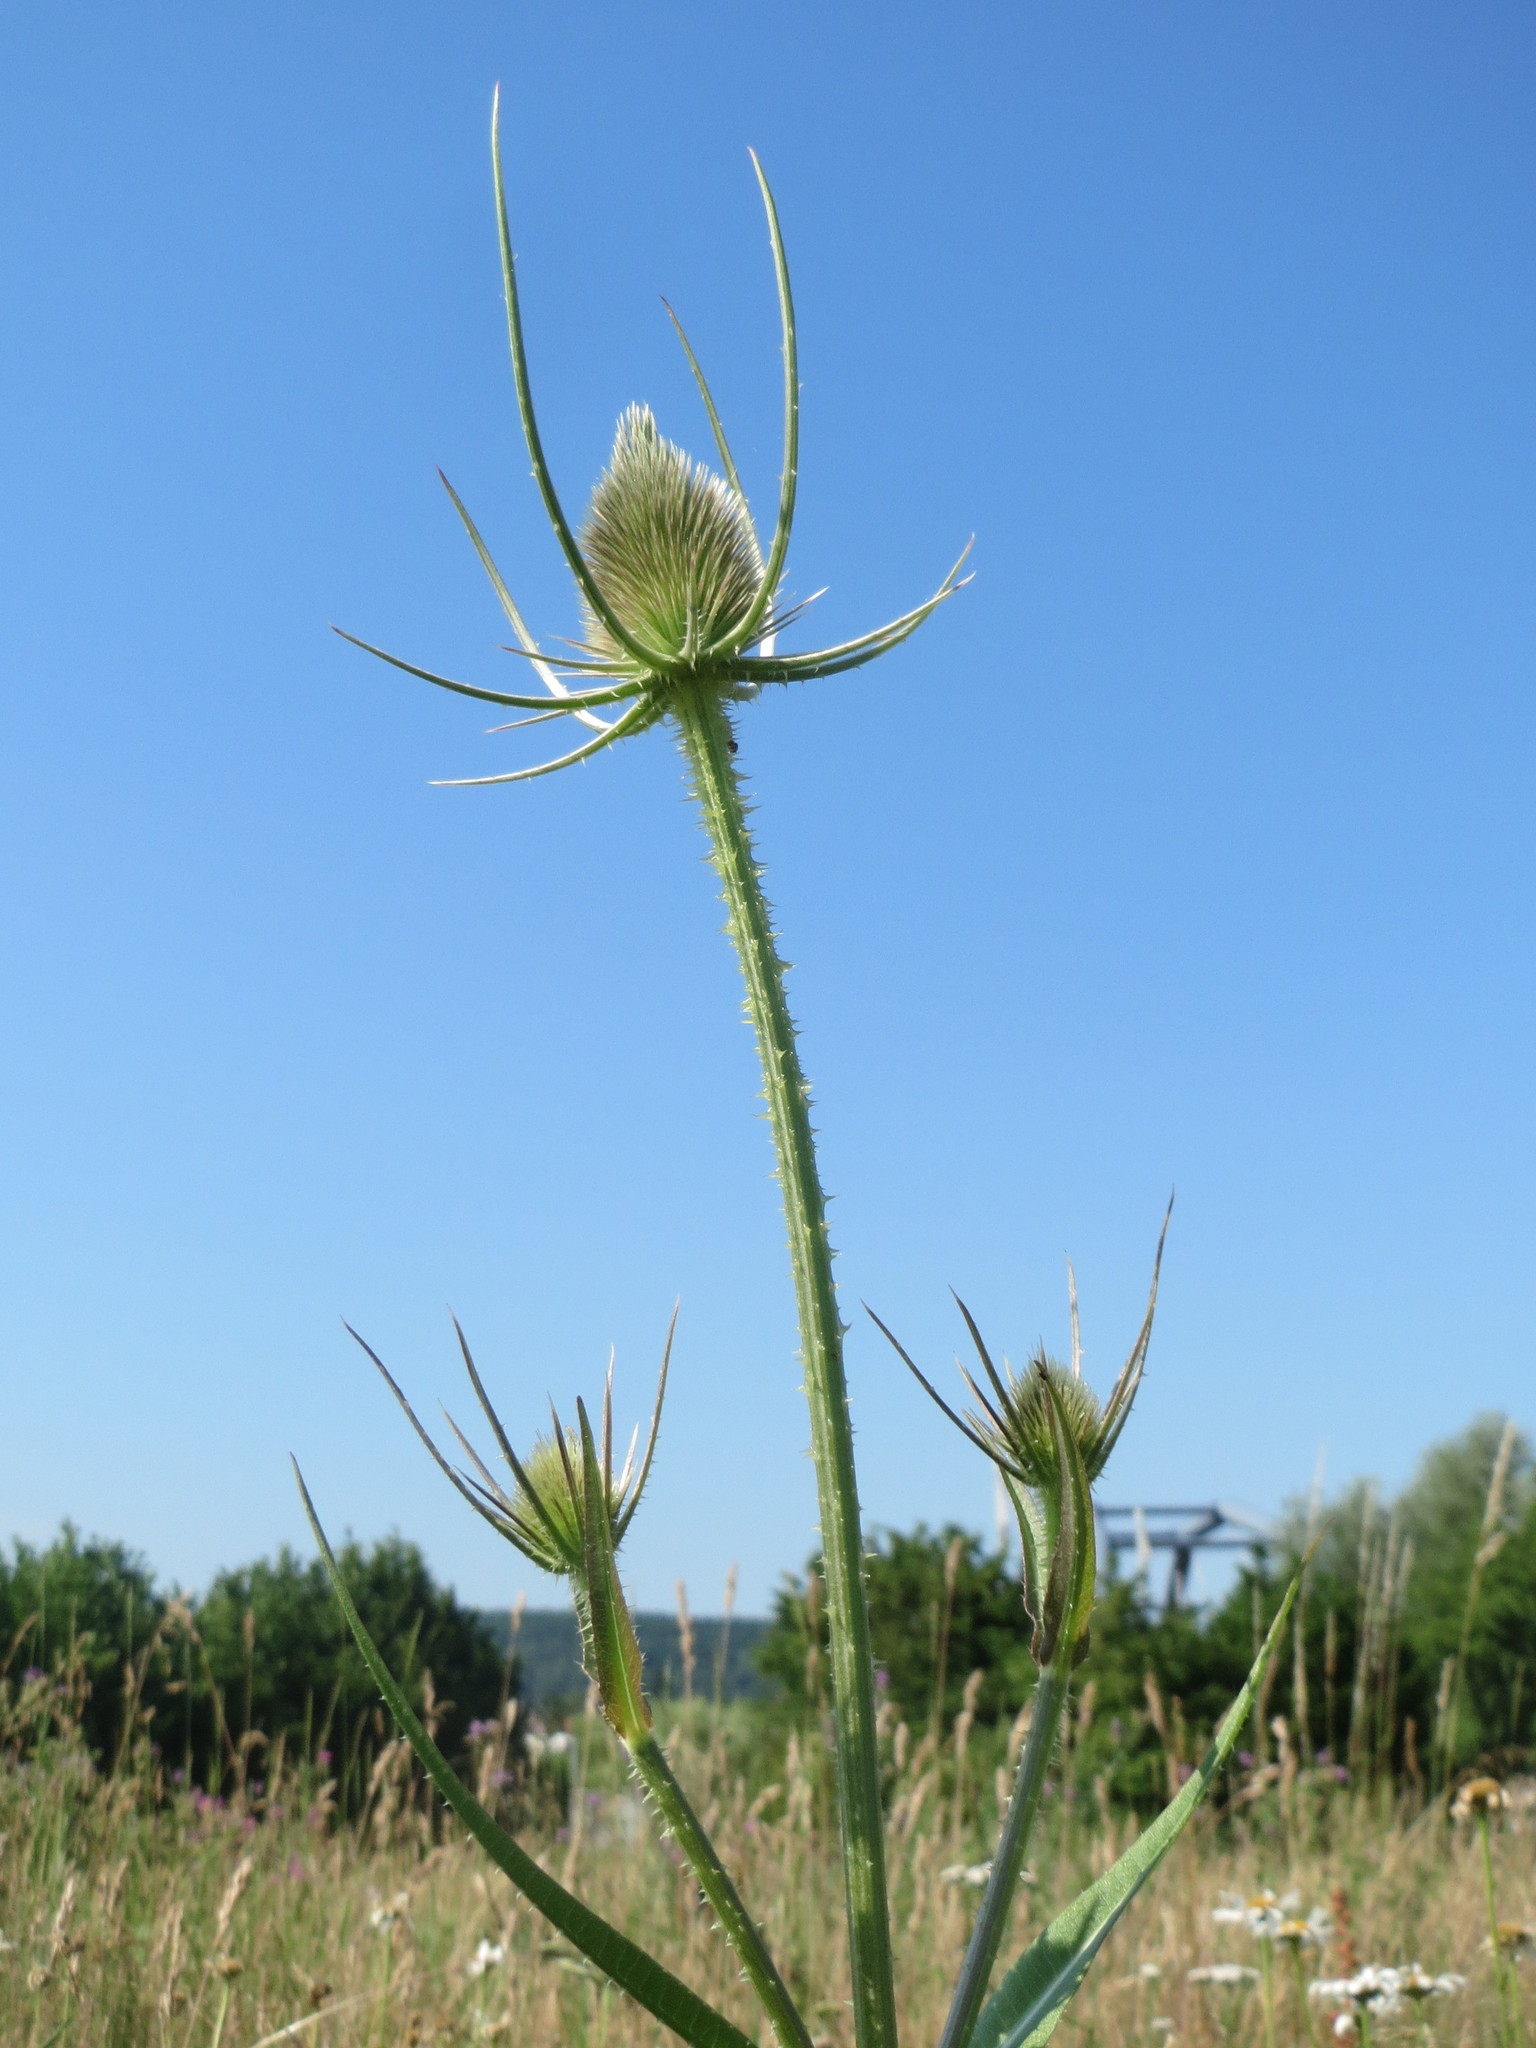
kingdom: Plantae
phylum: Tracheophyta
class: Magnoliopsida
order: Dipsacales
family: Caprifoliaceae
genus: Dipsacus
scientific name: Dipsacus fullonum
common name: Teasel
